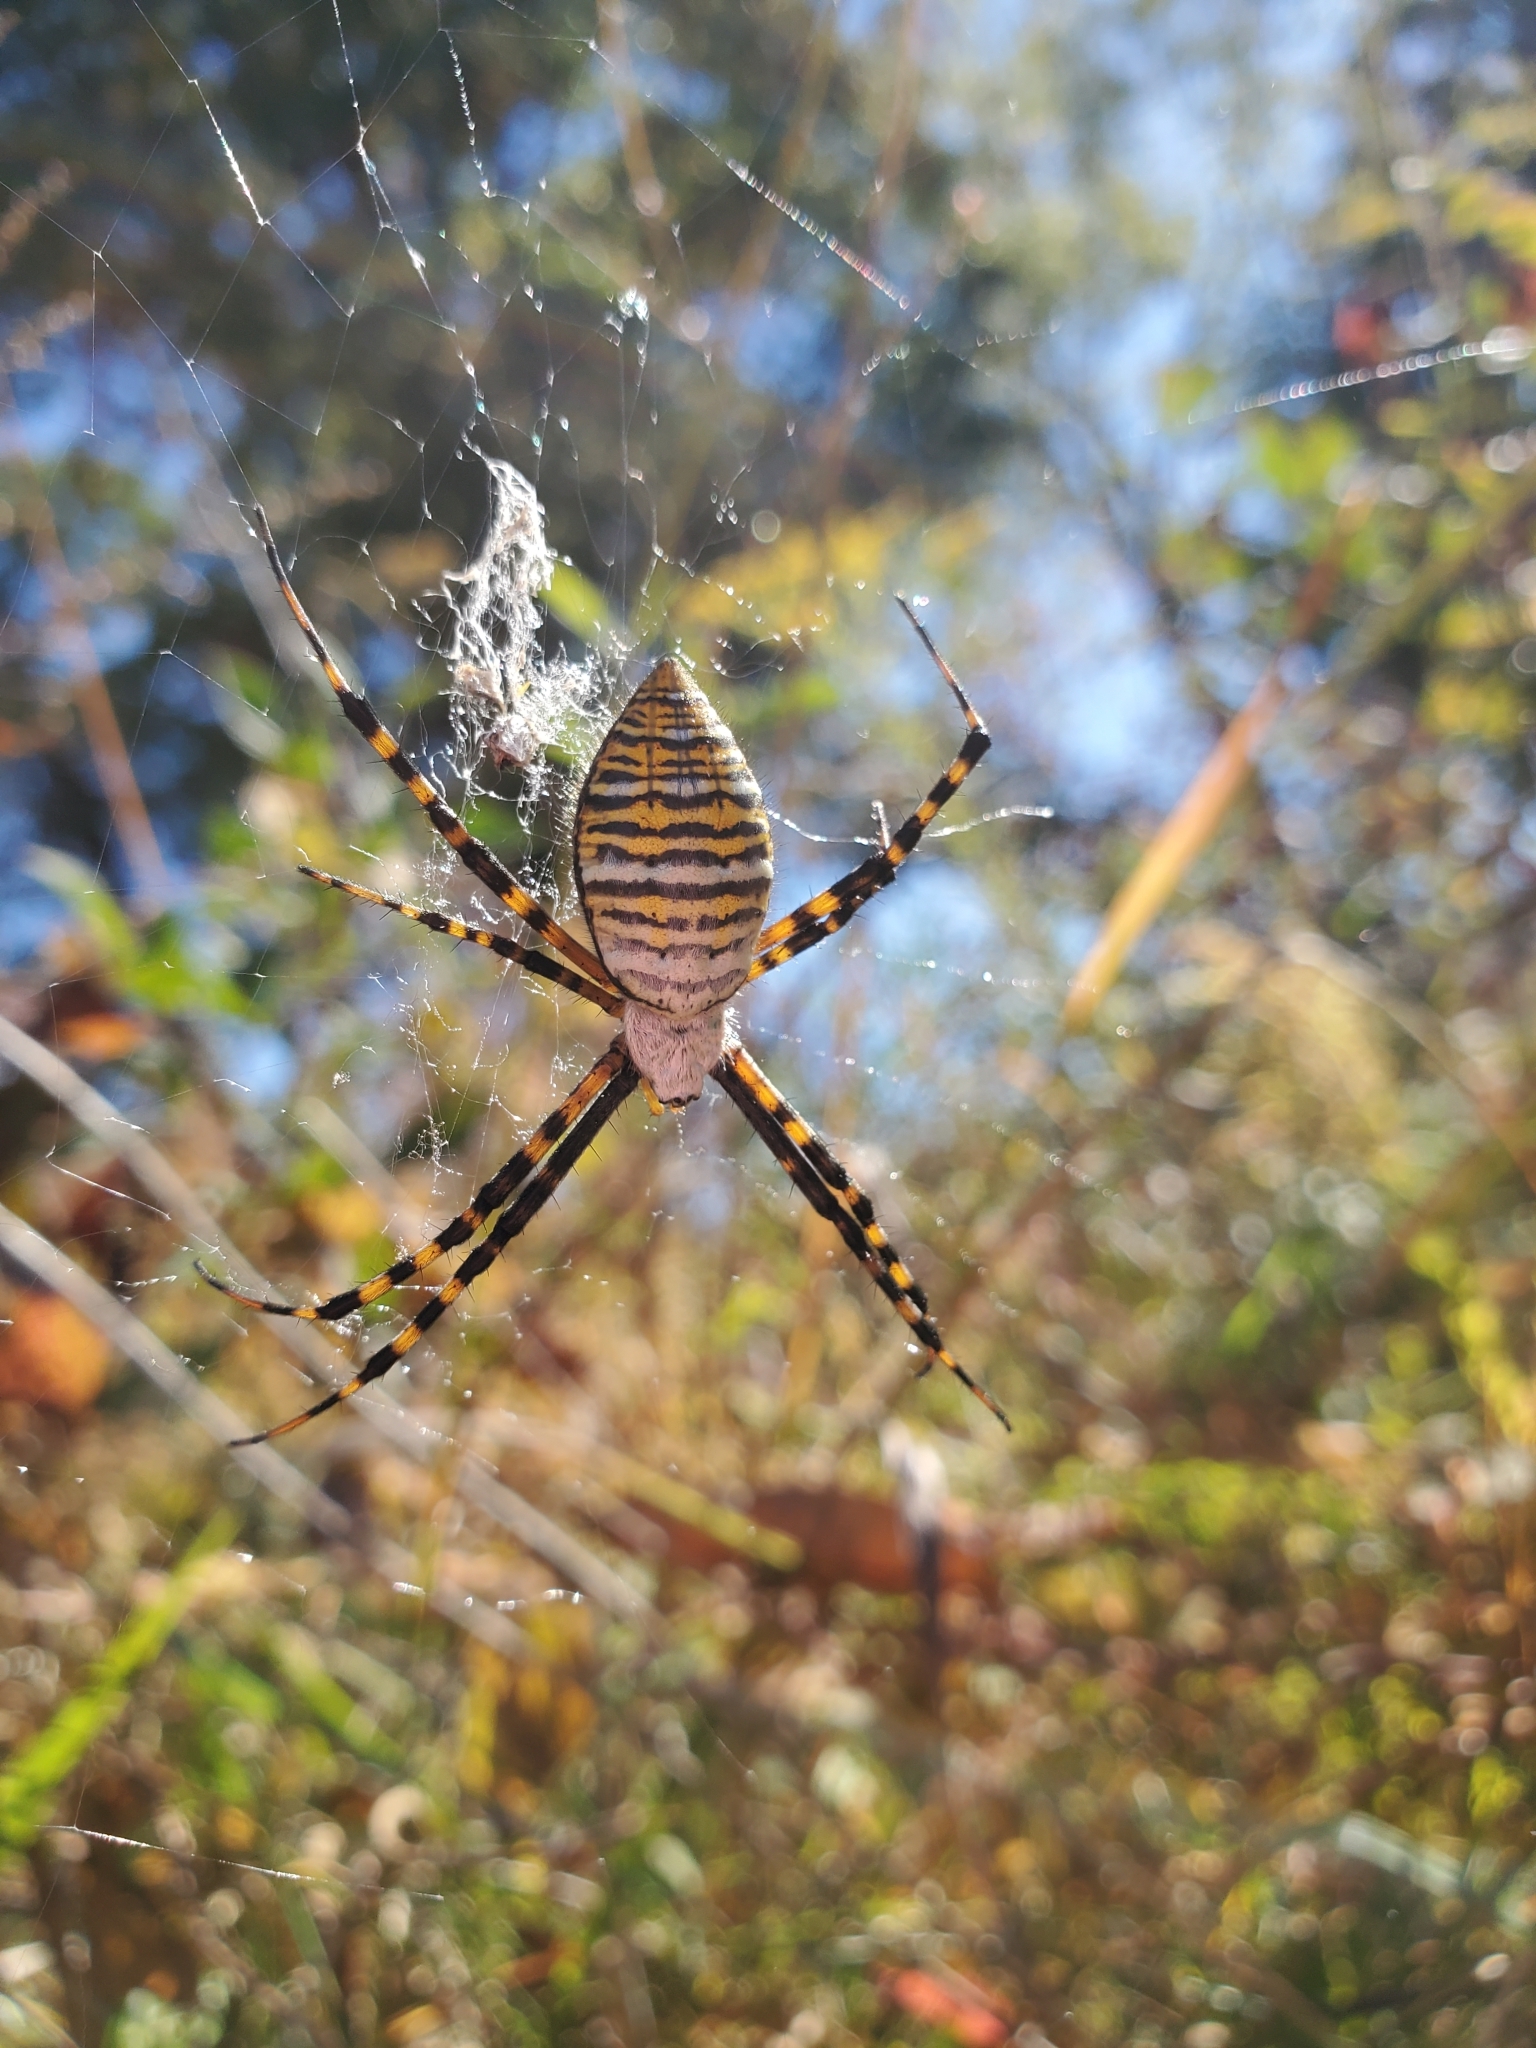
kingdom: Animalia
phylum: Arthropoda
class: Arachnida
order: Araneae
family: Araneidae
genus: Argiope
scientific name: Argiope trifasciata
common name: Banded garden spider
